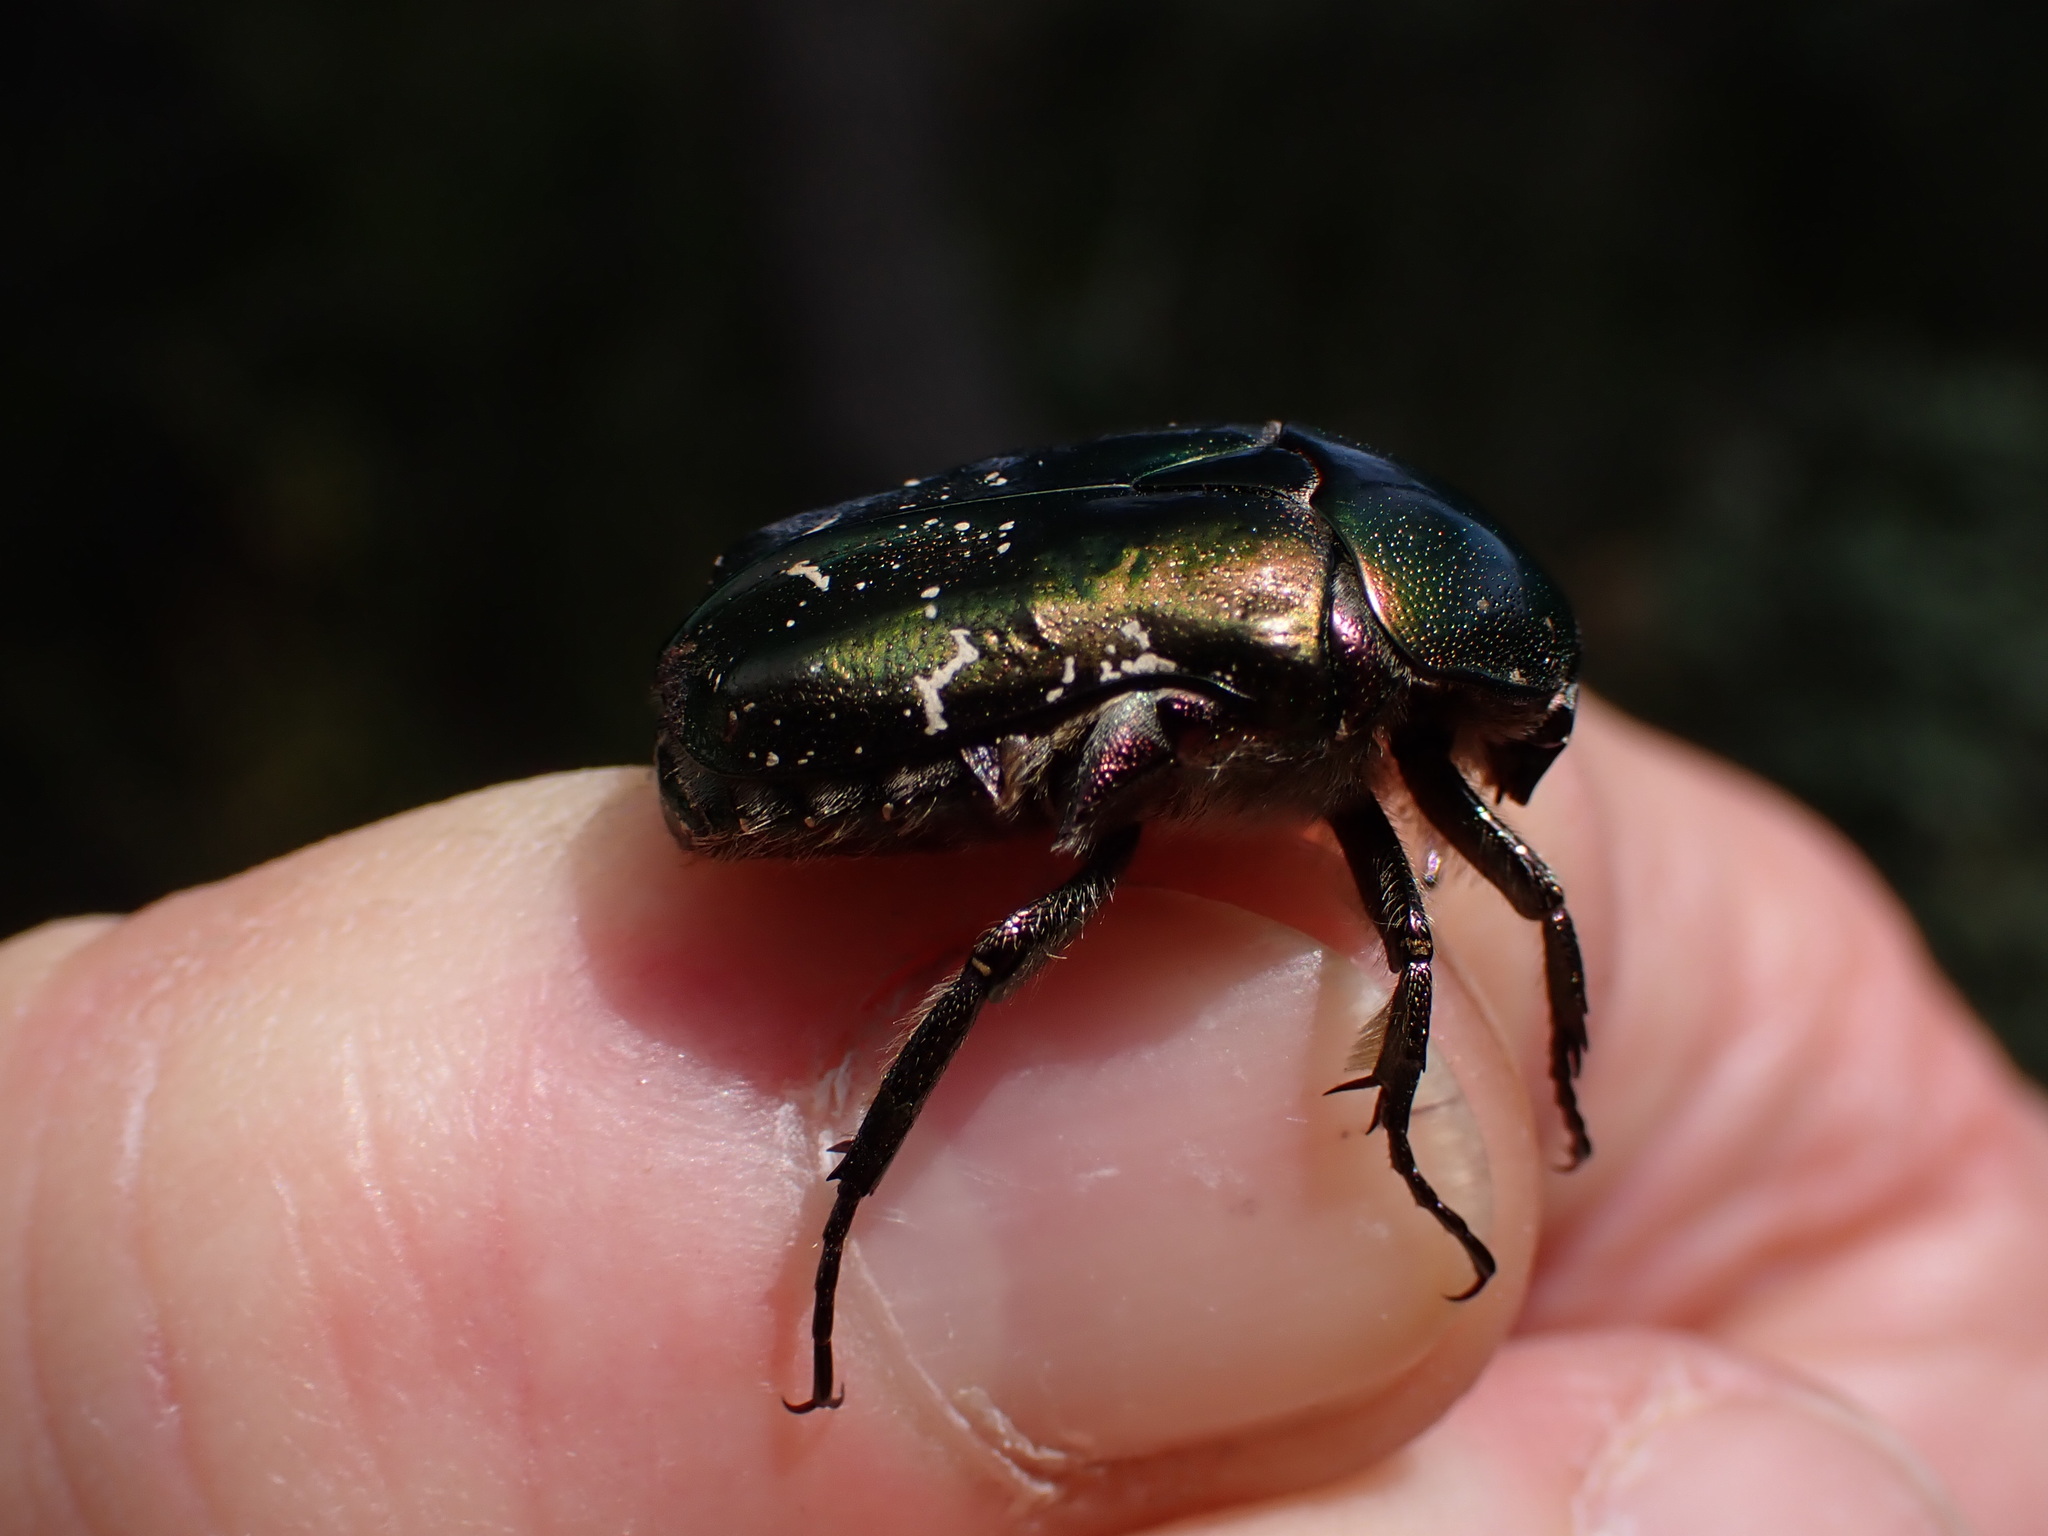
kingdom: Animalia
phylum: Arthropoda
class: Insecta
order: Coleoptera
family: Scarabaeidae
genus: Cetonia
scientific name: Cetonia aurata
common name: Rose chafer
